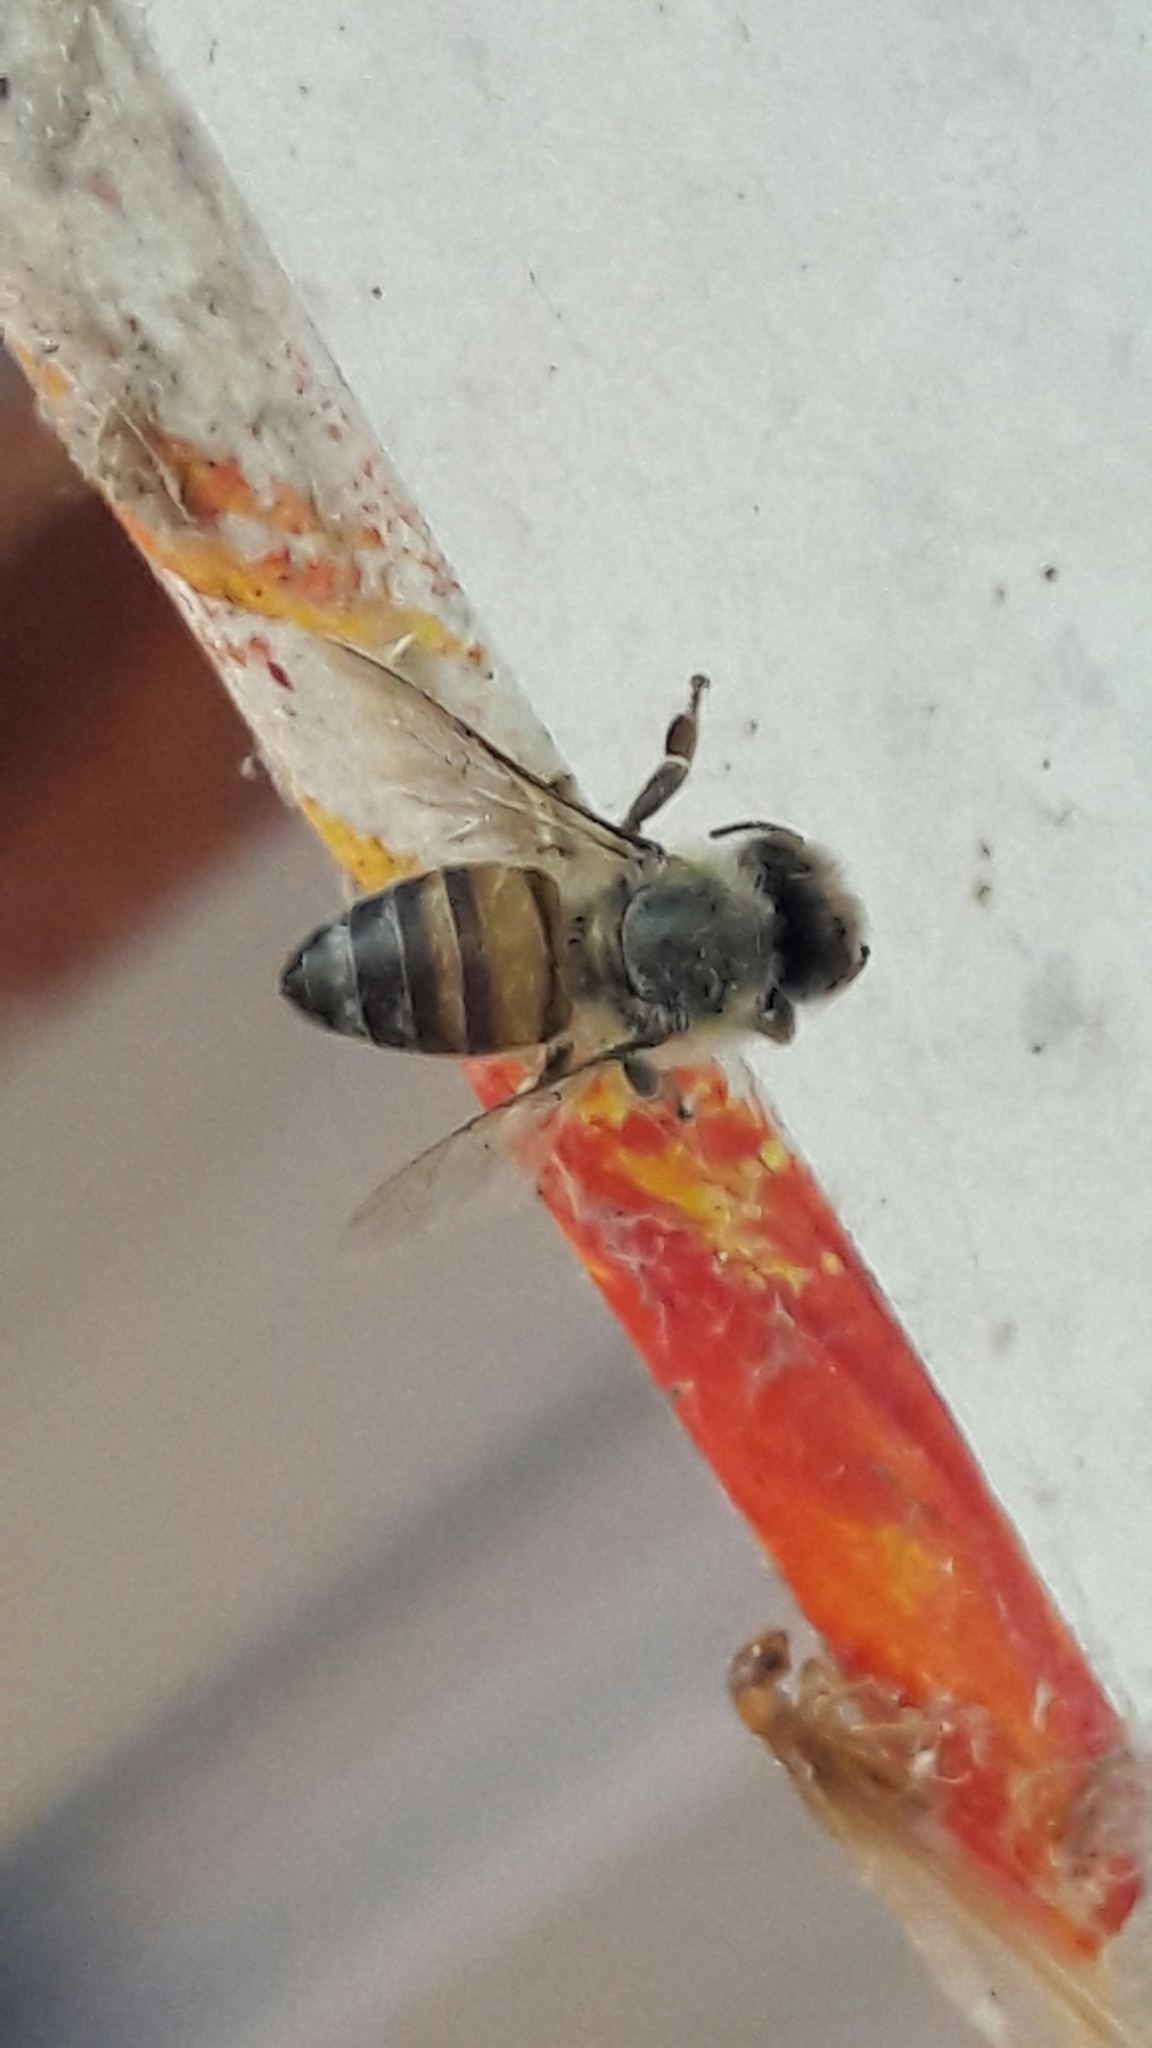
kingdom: Animalia
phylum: Arthropoda
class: Insecta
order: Hymenoptera
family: Apidae
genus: Apis
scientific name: Apis mellifera
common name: Honey bee
